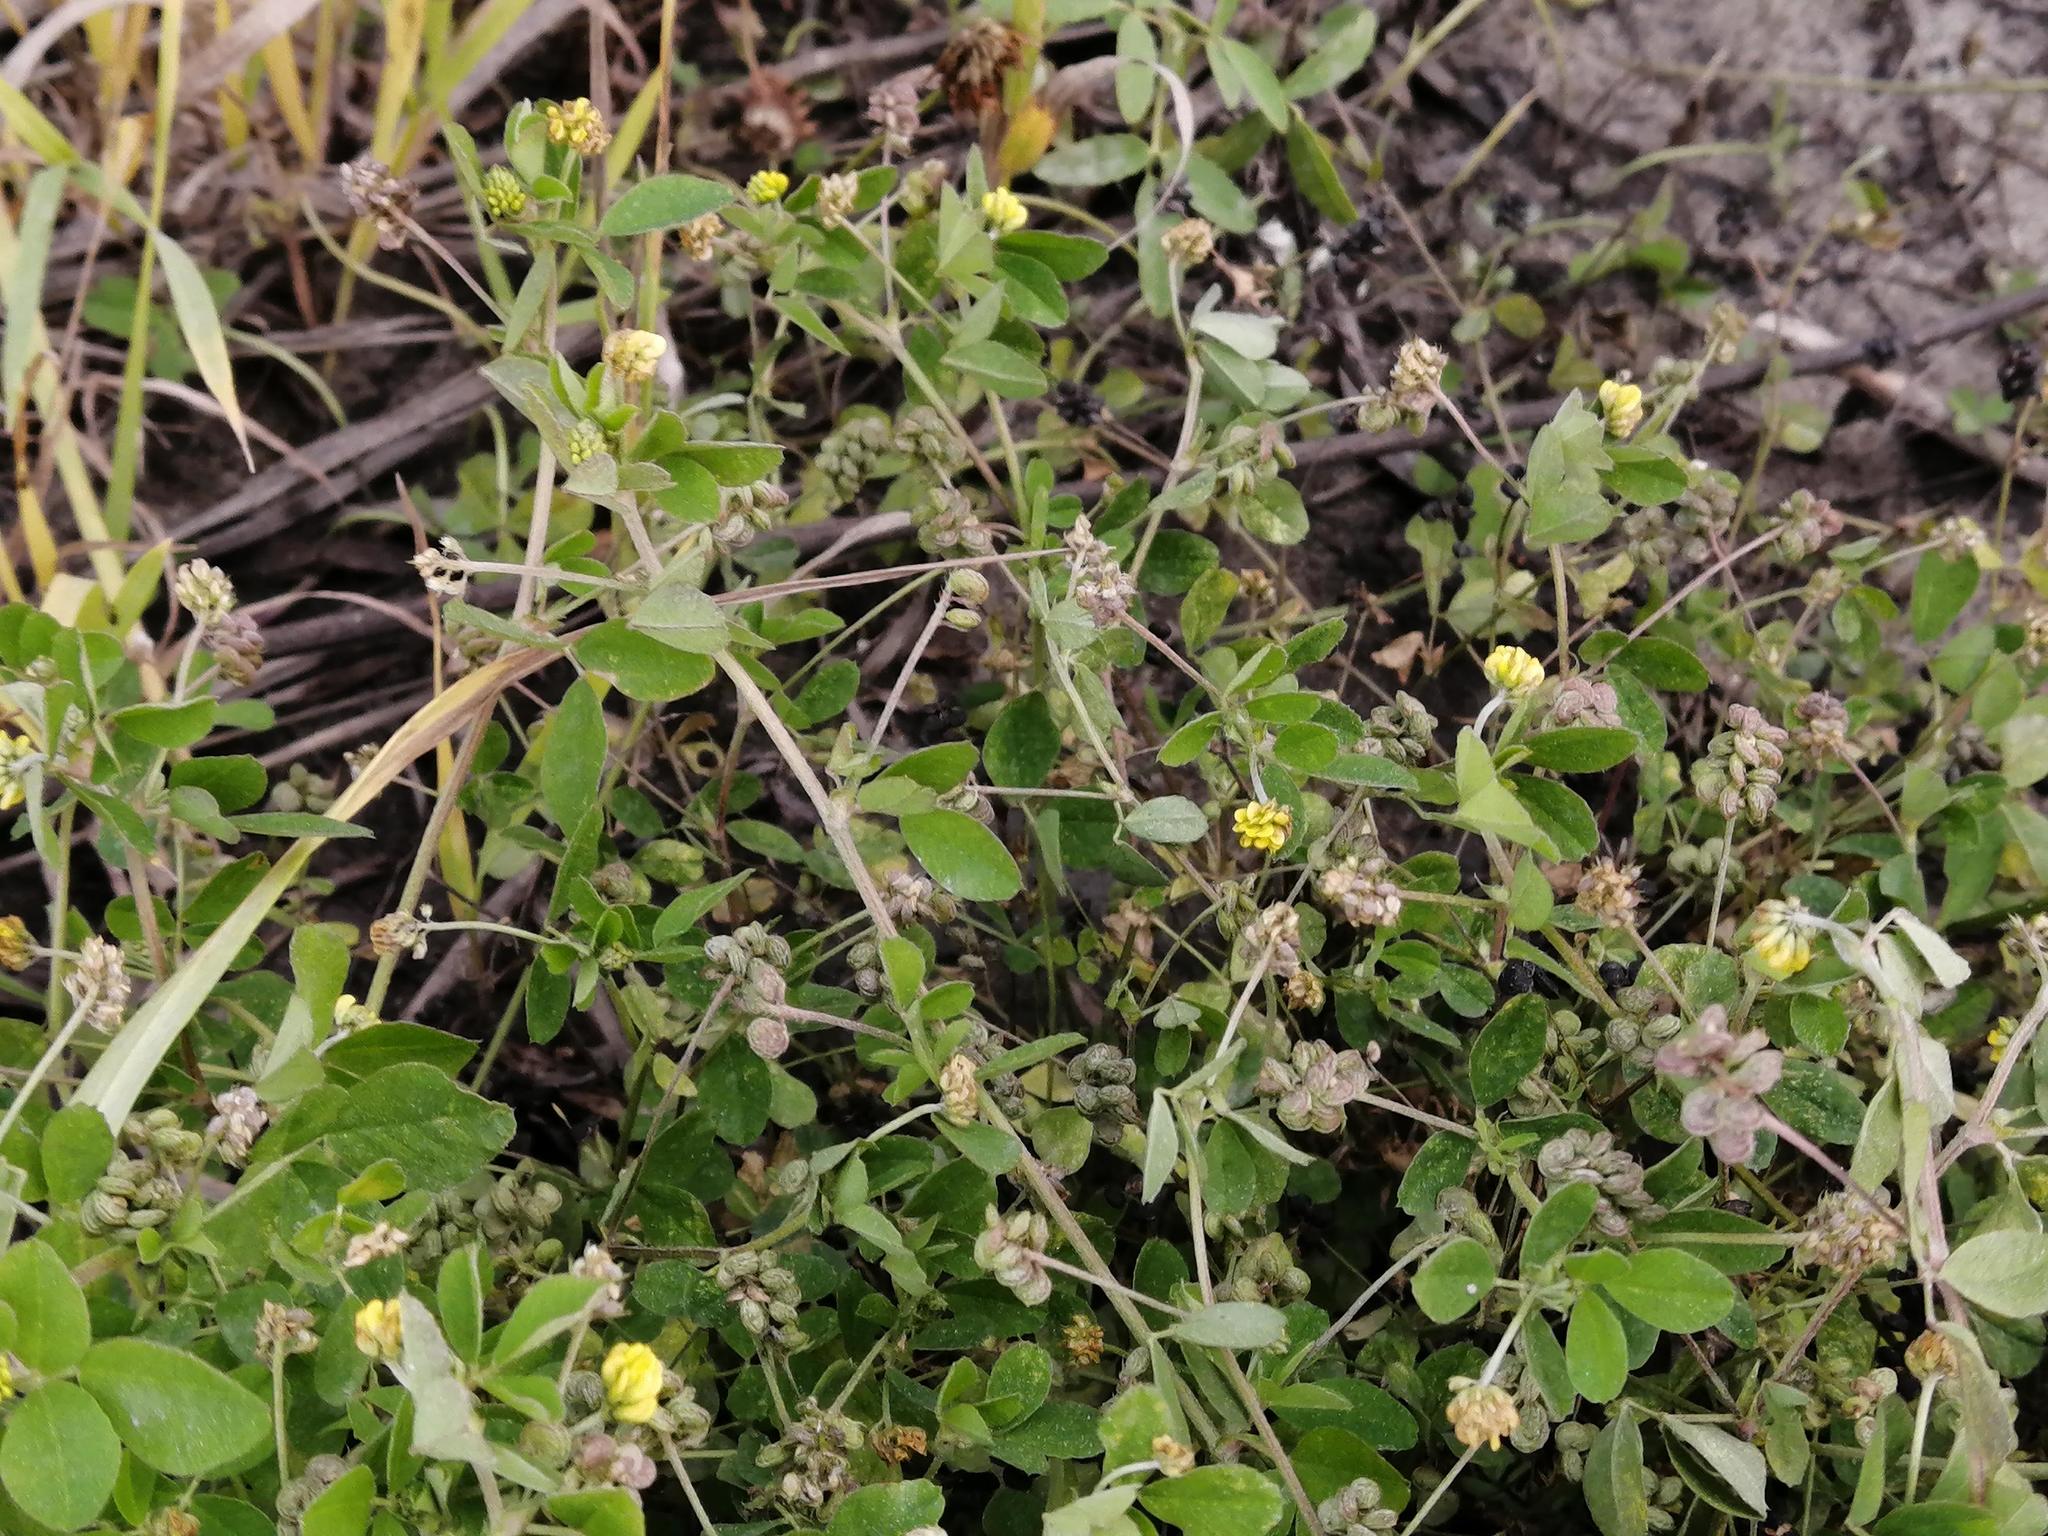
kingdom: Plantae
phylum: Tracheophyta
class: Magnoliopsida
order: Fabales
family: Fabaceae
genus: Medicago
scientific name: Medicago lupulina
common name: Black medick
